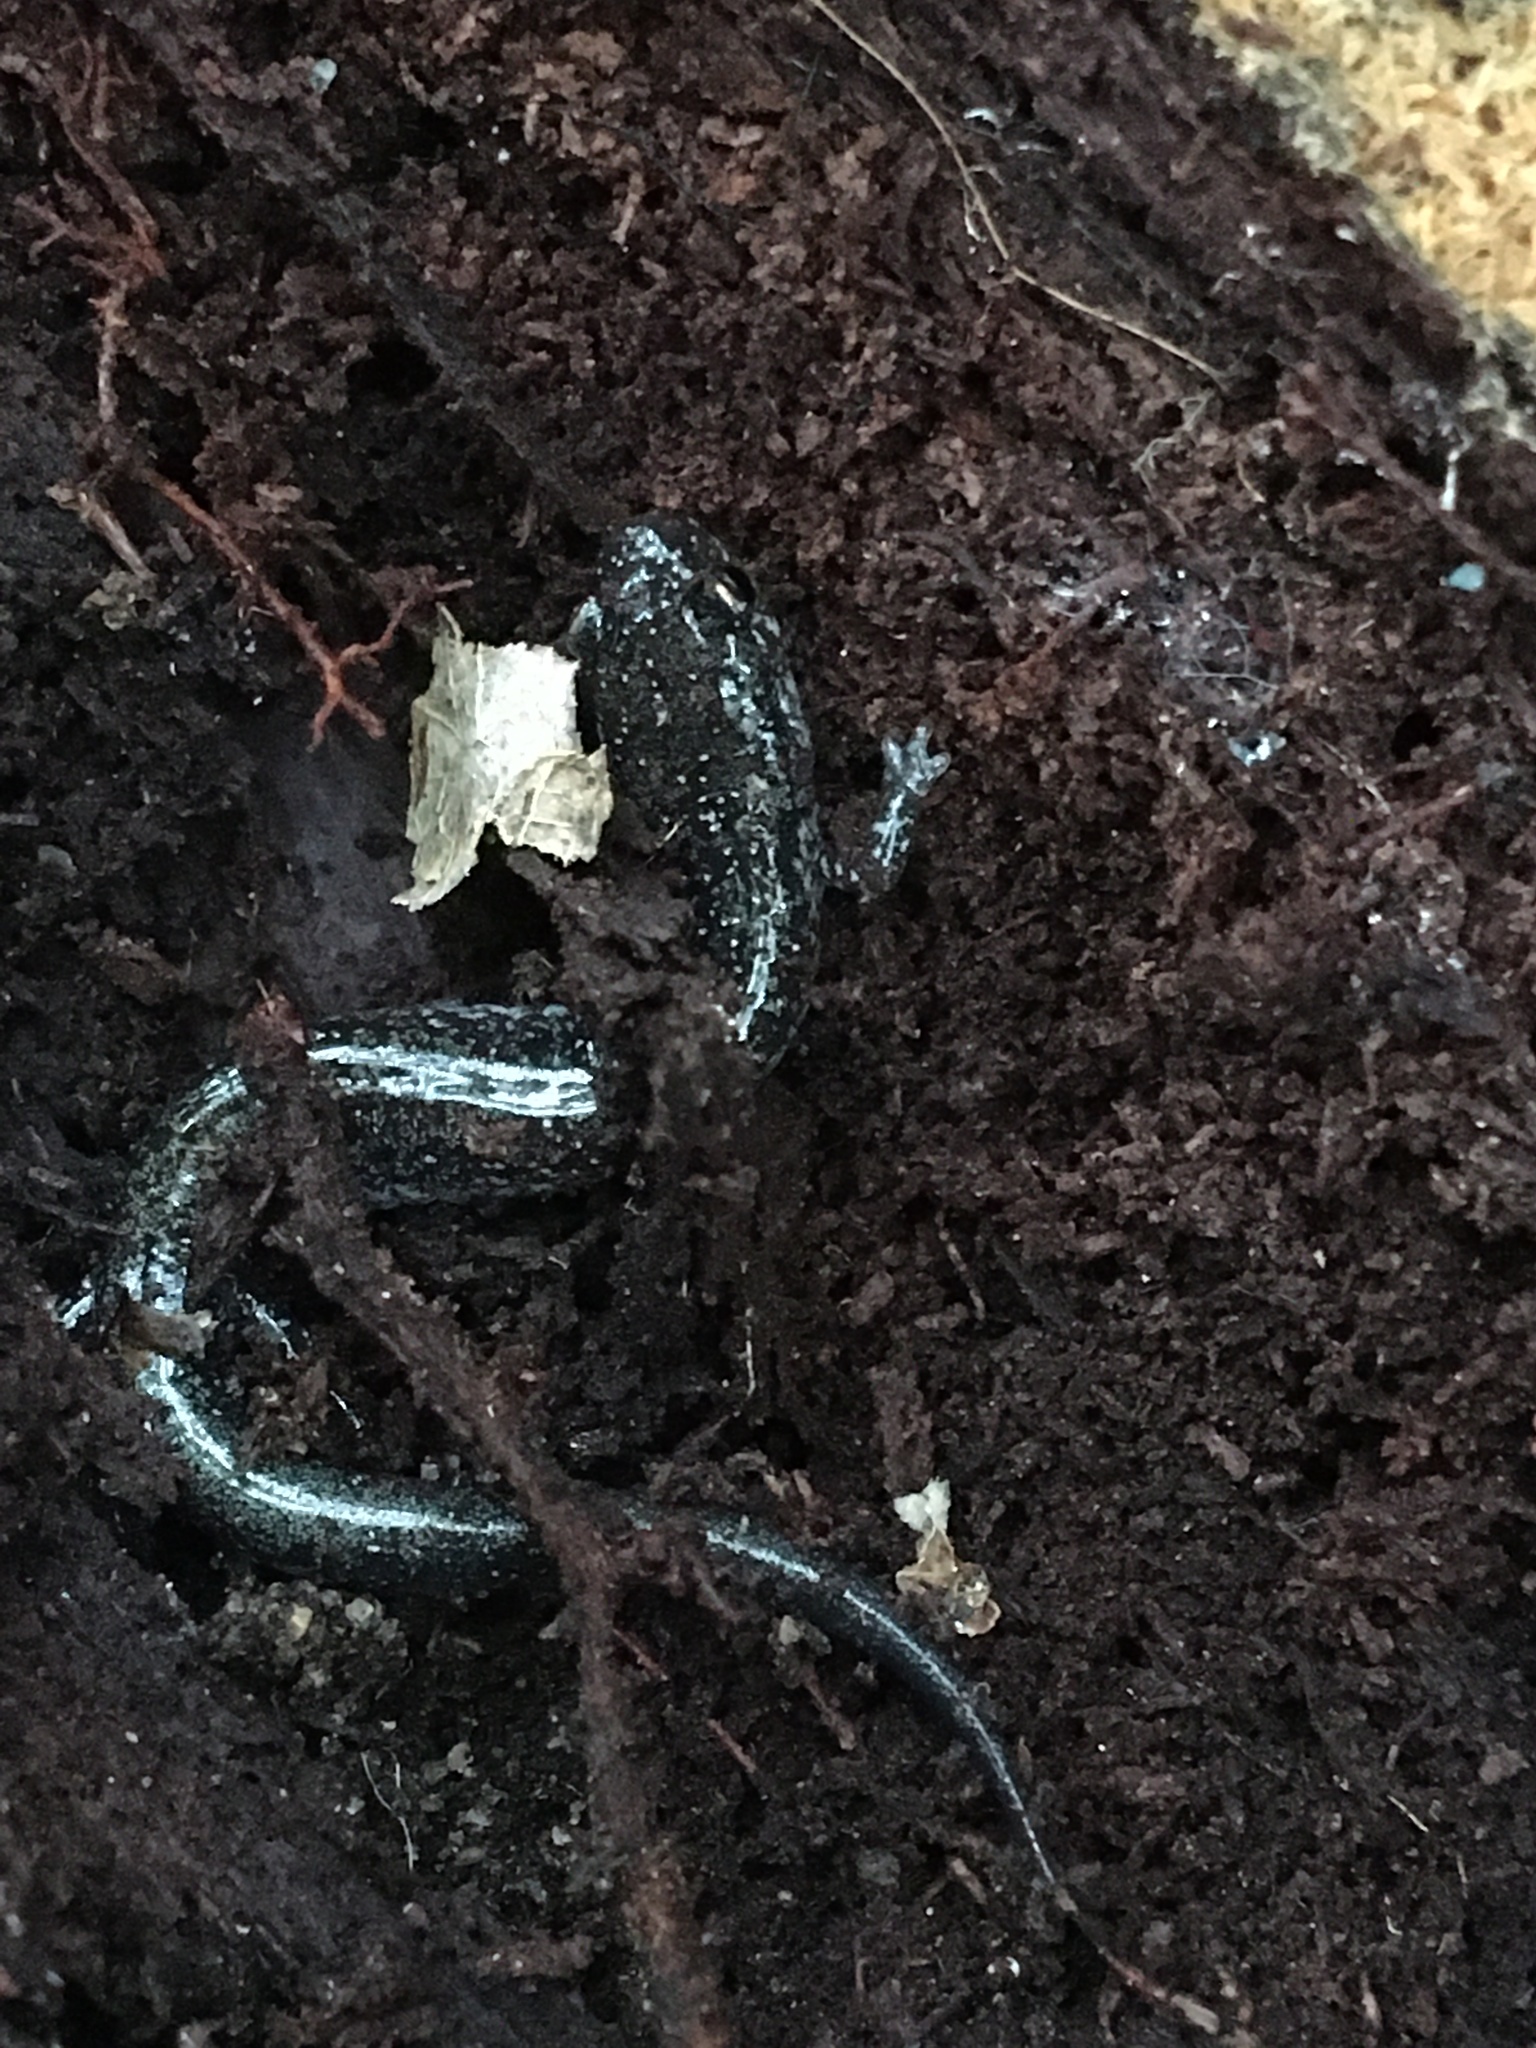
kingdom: Animalia
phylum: Chordata
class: Amphibia
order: Caudata
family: Plethodontidae
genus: Plethodon
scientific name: Plethodon cinereus
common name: Redback salamander
